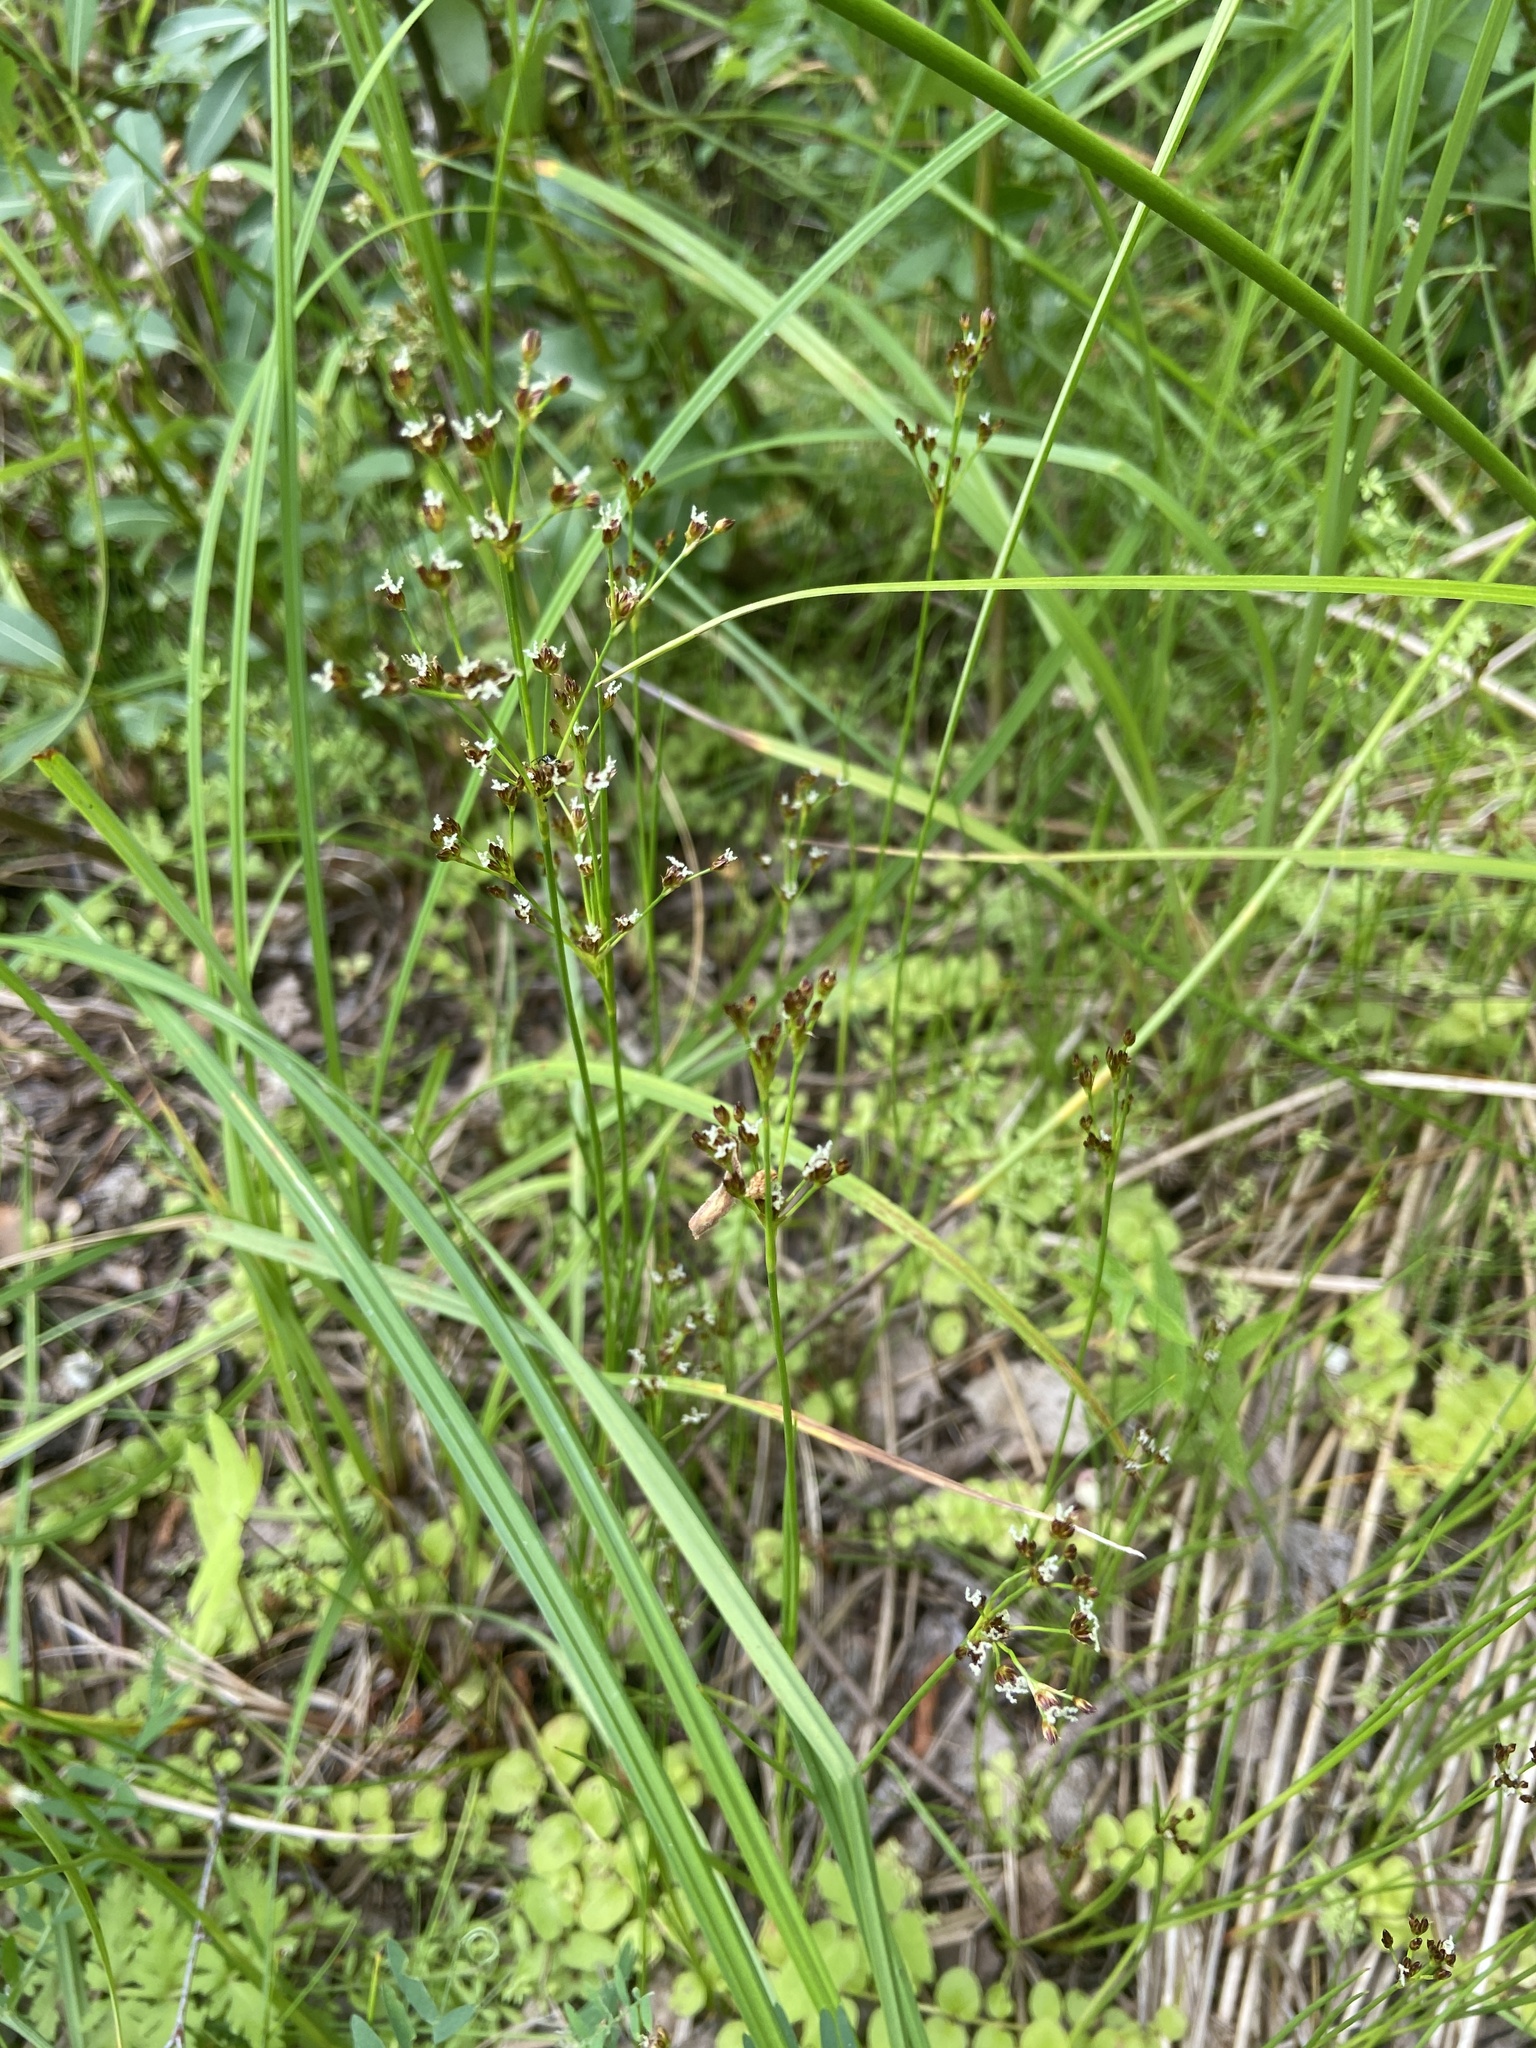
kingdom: Plantae
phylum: Tracheophyta
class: Liliopsida
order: Poales
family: Juncaceae
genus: Juncus
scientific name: Juncus articulatus
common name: Jointed rush
